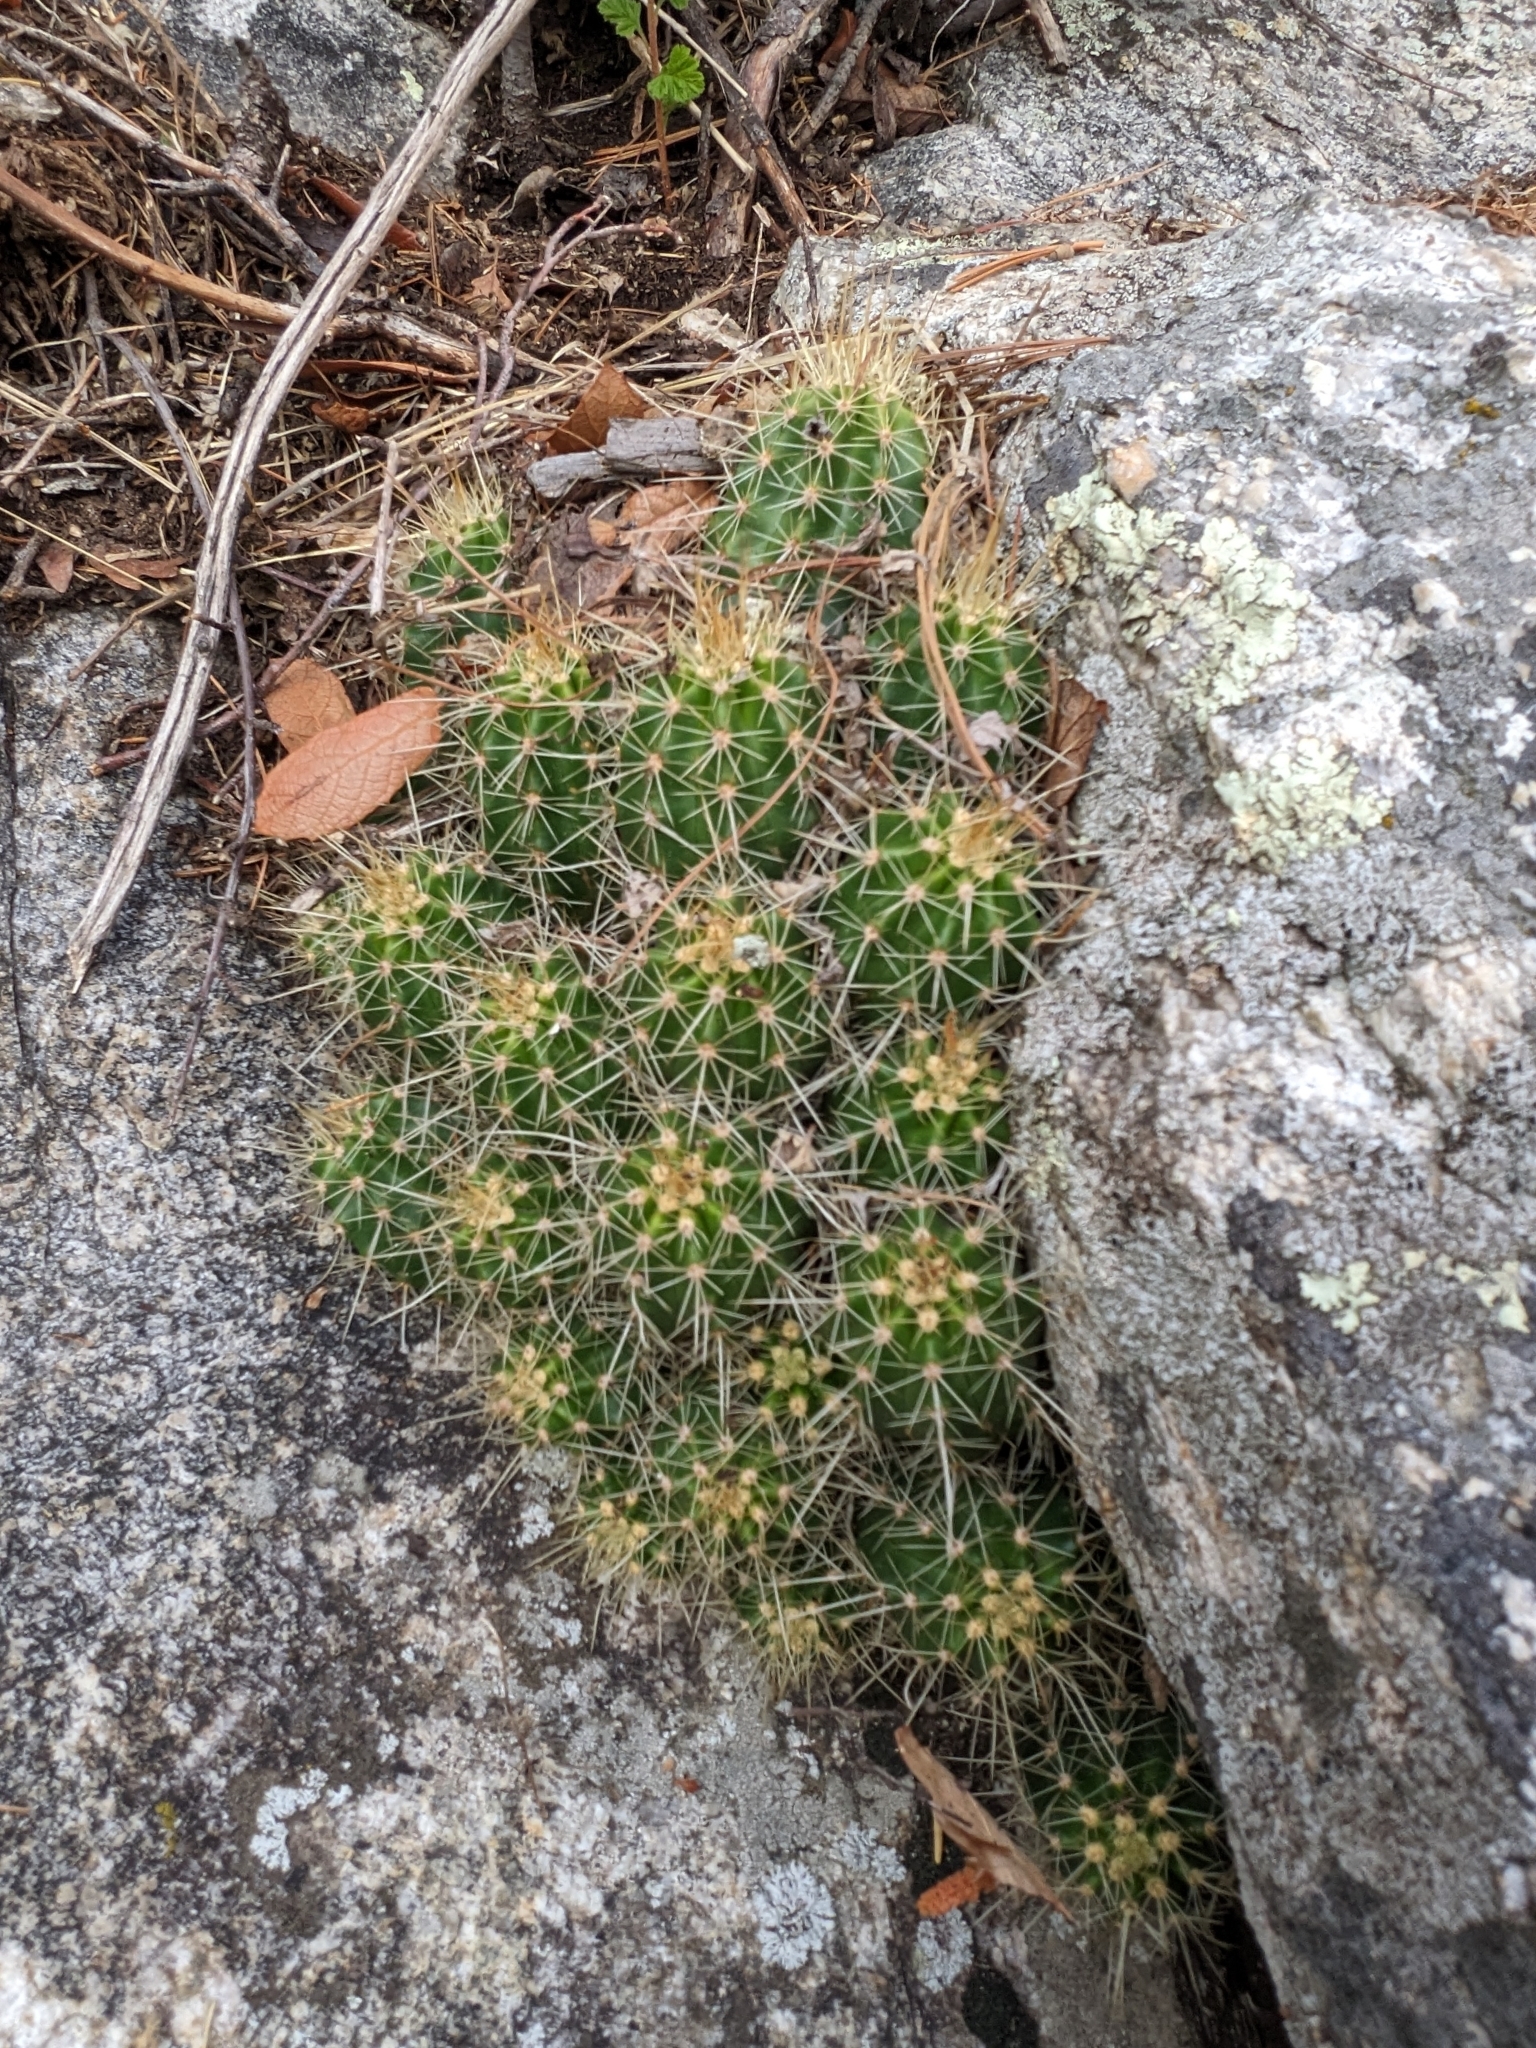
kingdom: Plantae
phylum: Tracheophyta
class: Magnoliopsida
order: Caryophyllales
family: Cactaceae
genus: Echinocereus
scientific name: Echinocereus coccineus
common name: Scarlet hedgehog cactus
